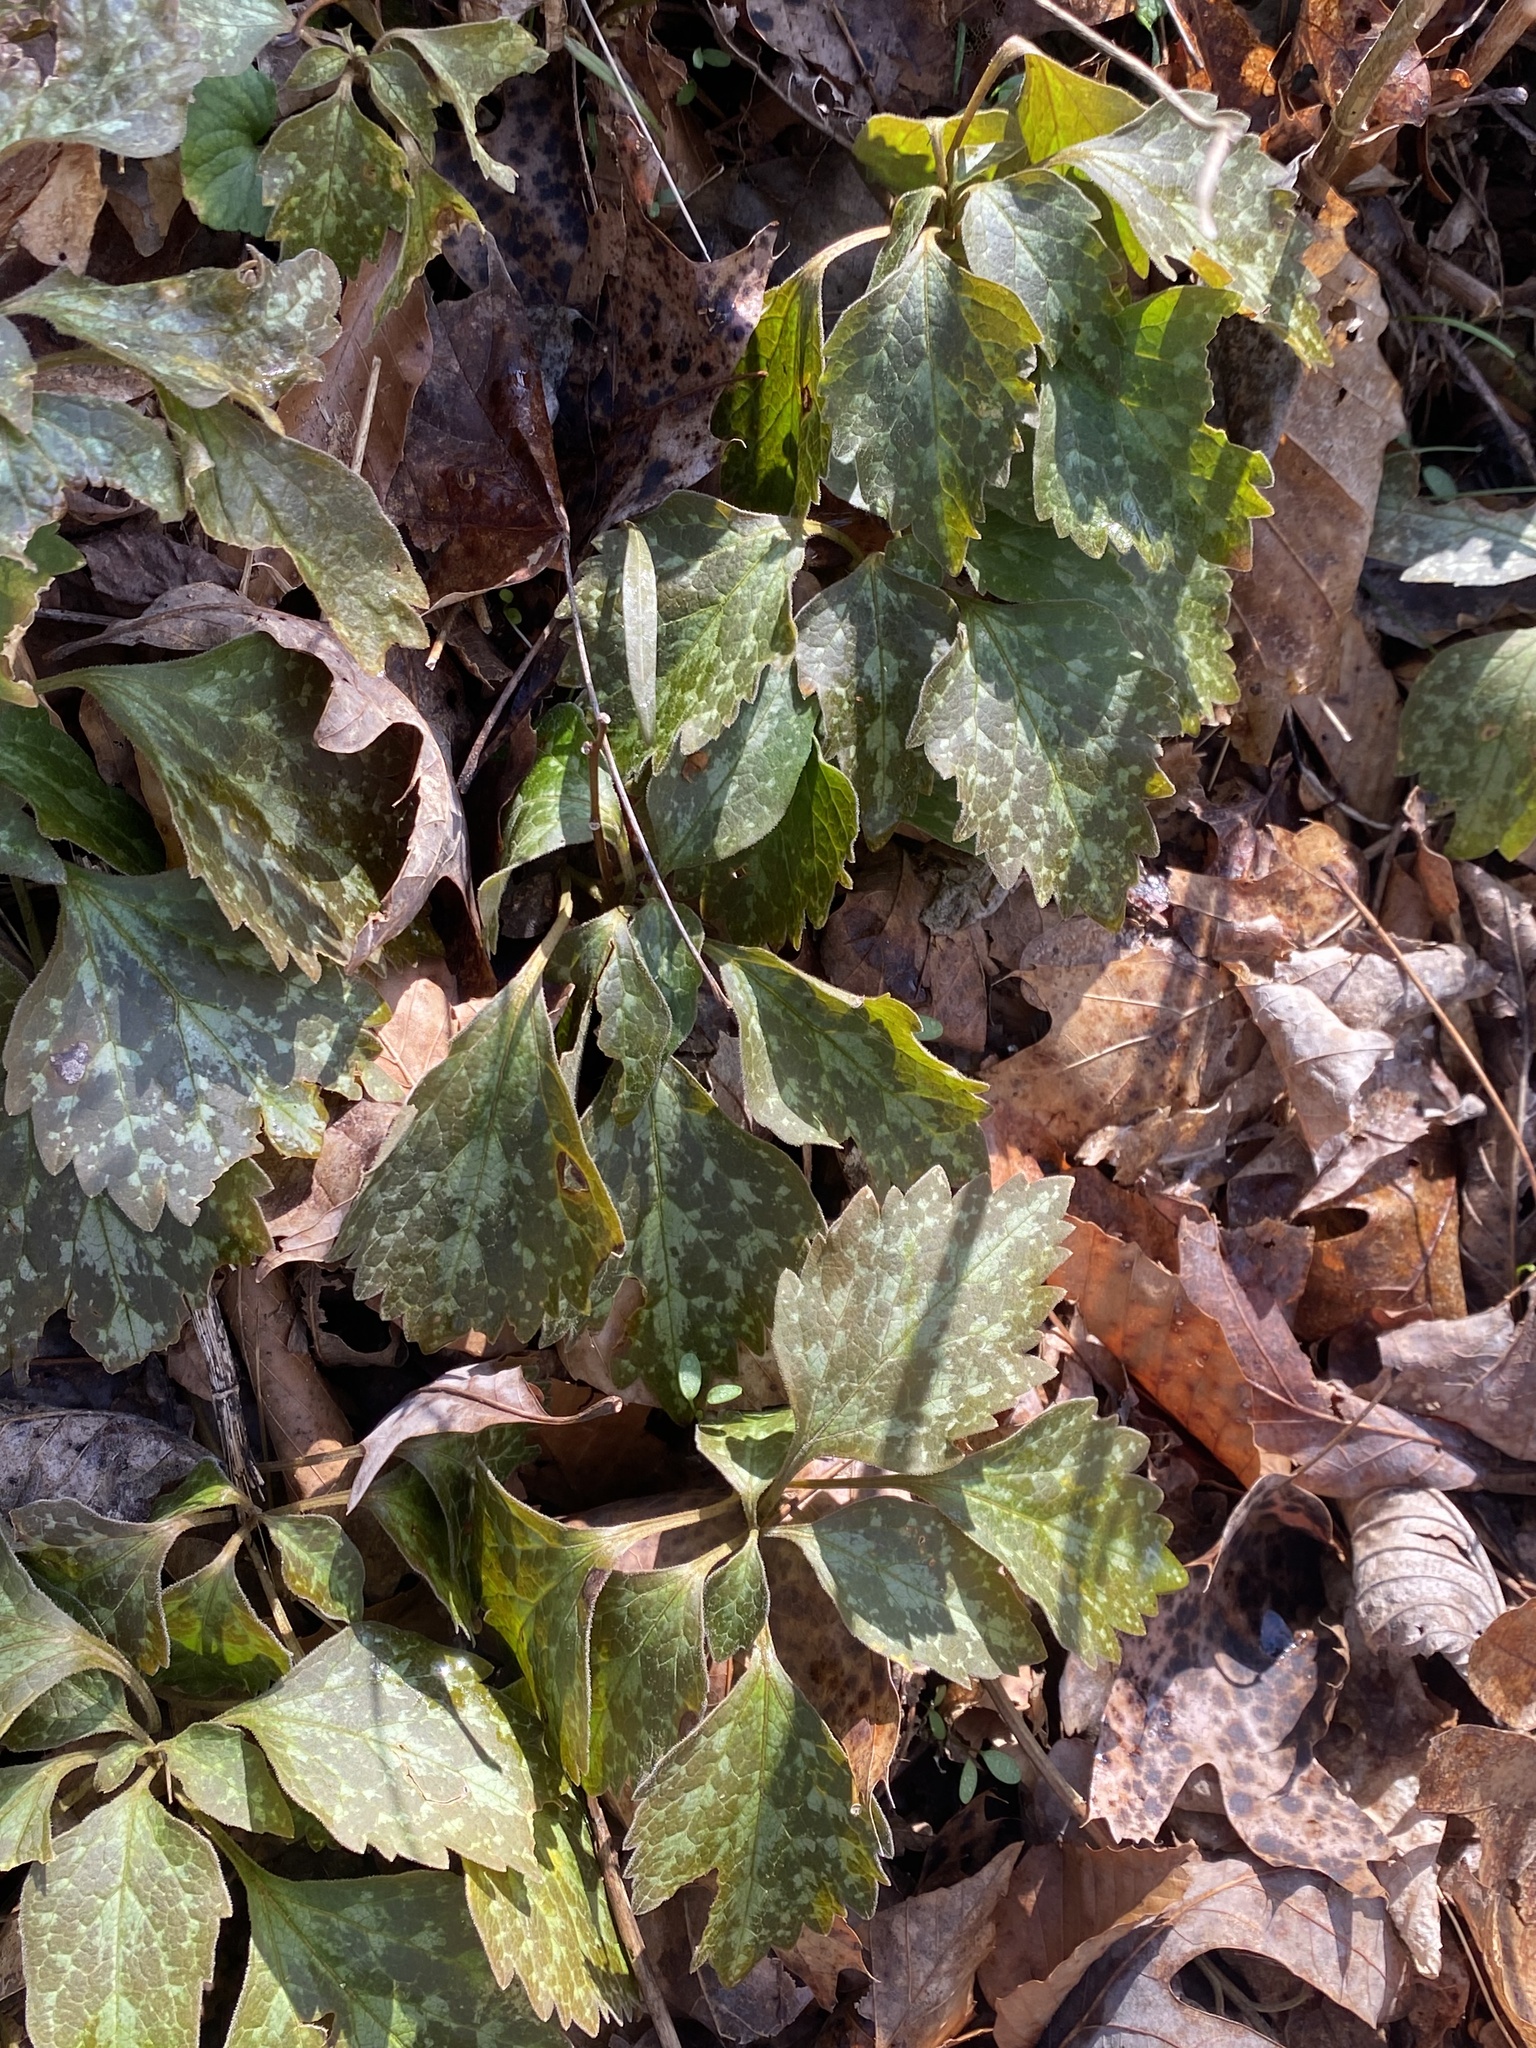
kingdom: Plantae
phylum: Tracheophyta
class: Magnoliopsida
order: Buxales
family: Buxaceae
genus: Pachysandra
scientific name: Pachysandra procumbens
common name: Mountain-spurge
